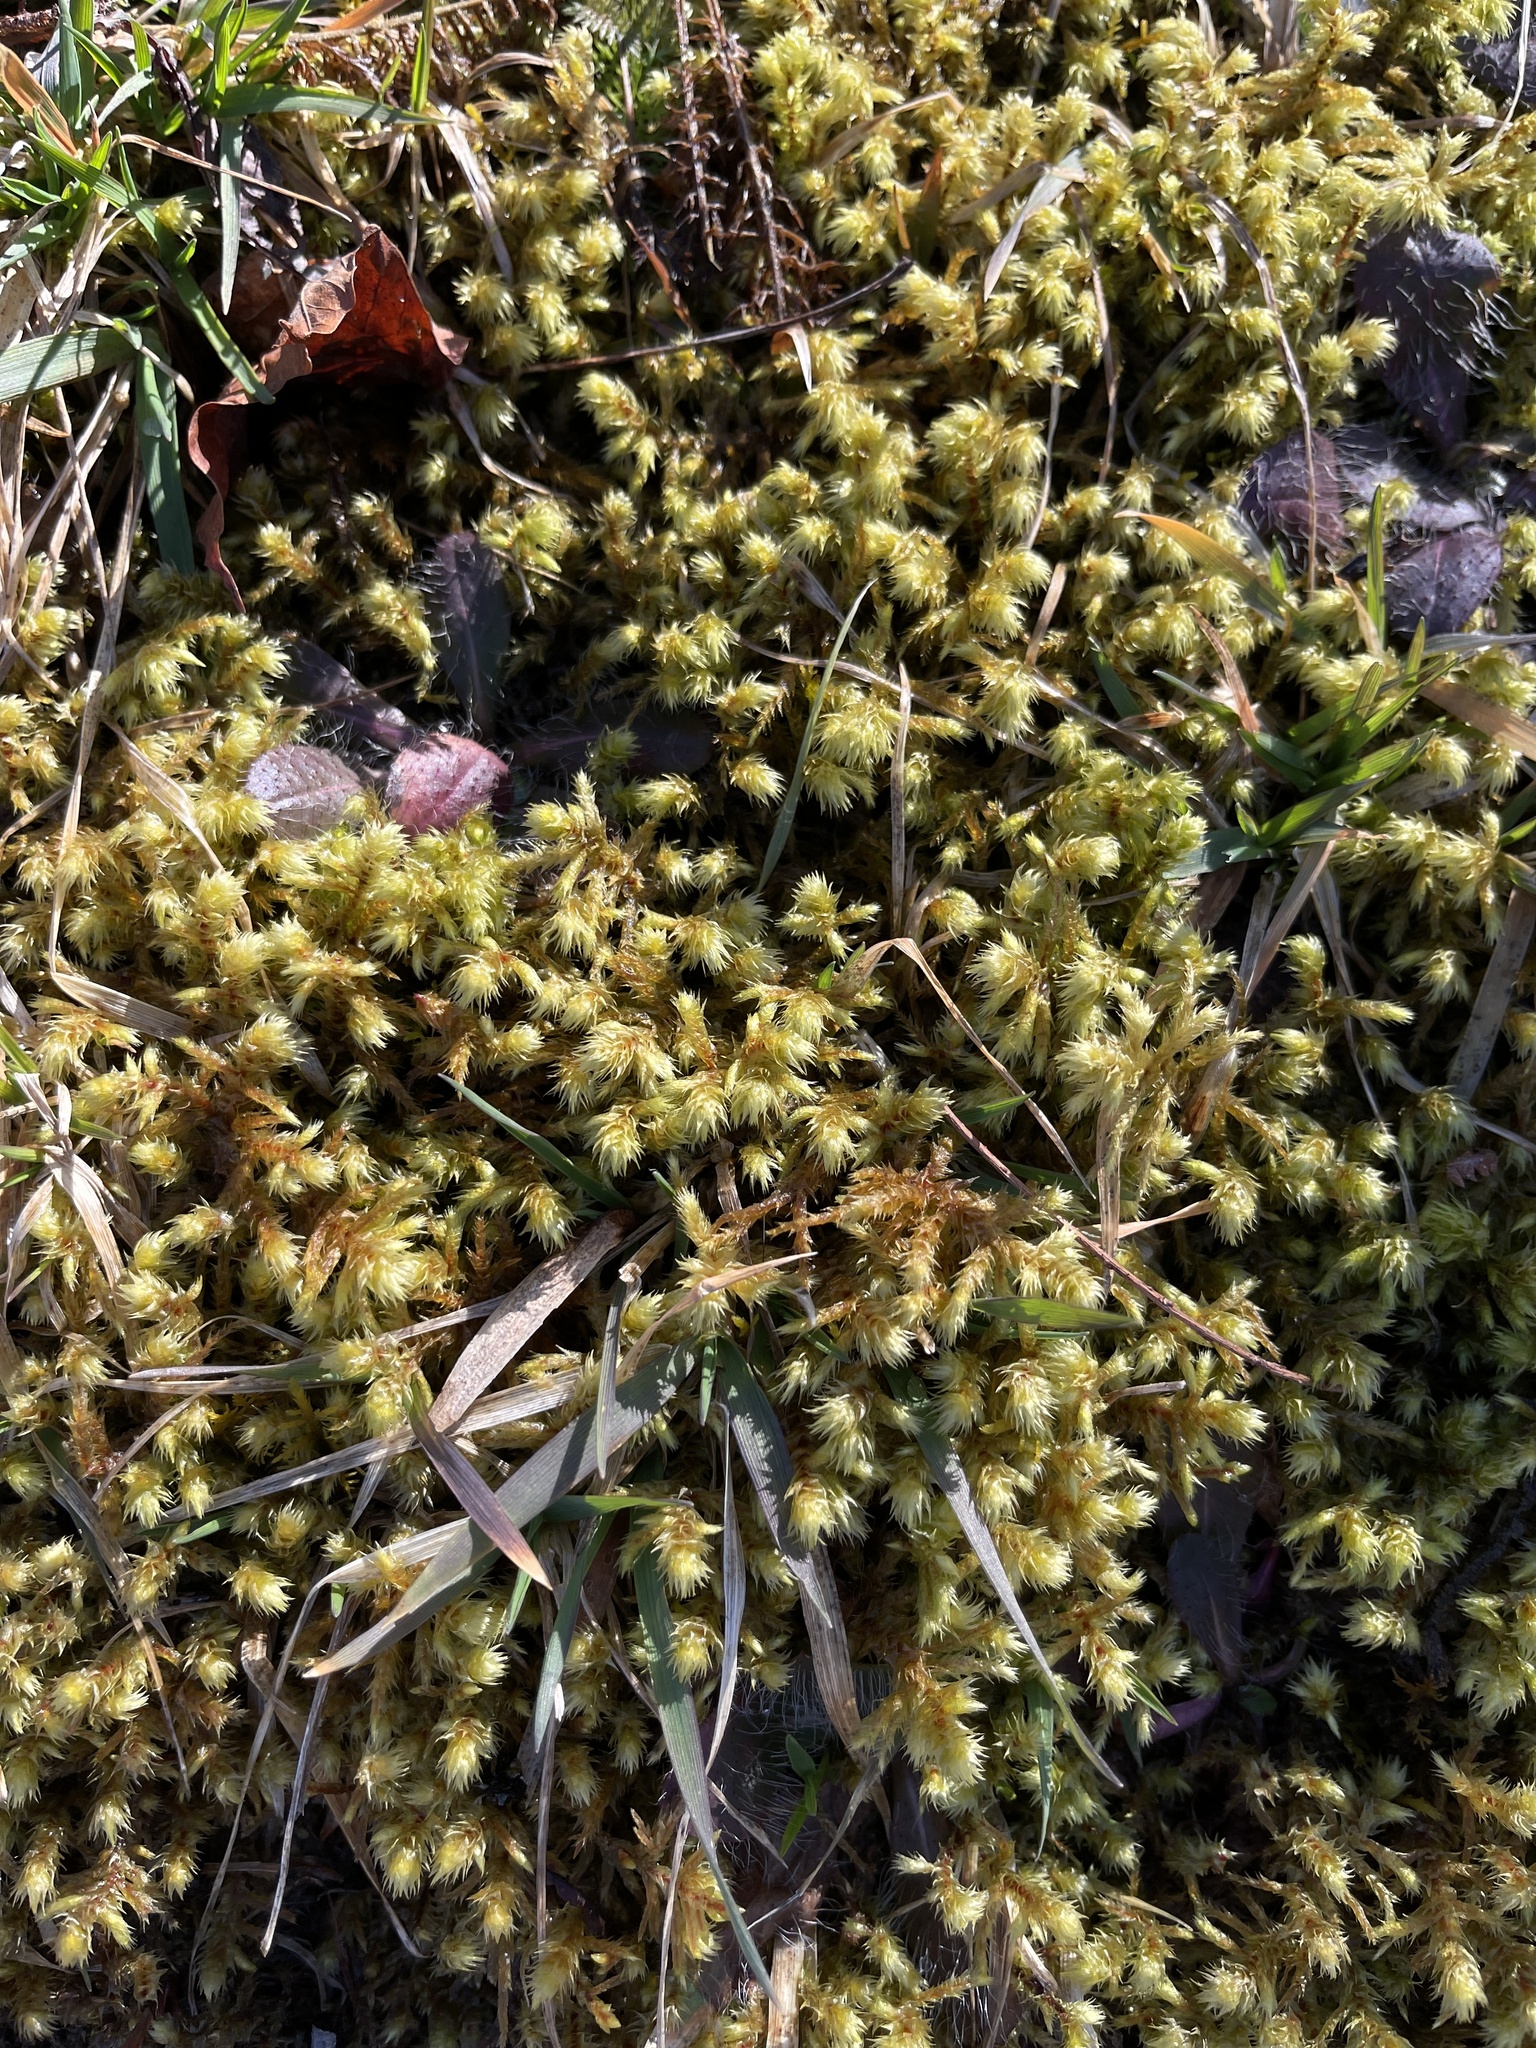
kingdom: Plantae
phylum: Bryophyta
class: Bryopsida
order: Hypnales
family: Hylocomiaceae
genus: Hylocomiadelphus
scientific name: Hylocomiadelphus triquetrus
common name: Rough goose neck moss
